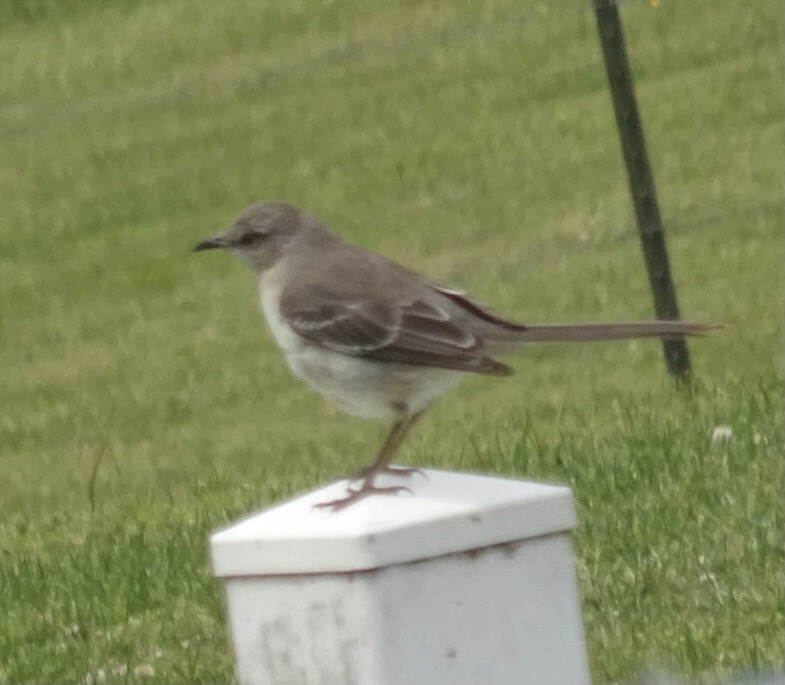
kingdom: Animalia
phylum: Chordata
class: Aves
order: Passeriformes
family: Mimidae
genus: Mimus
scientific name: Mimus polyglottos
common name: Northern mockingbird
